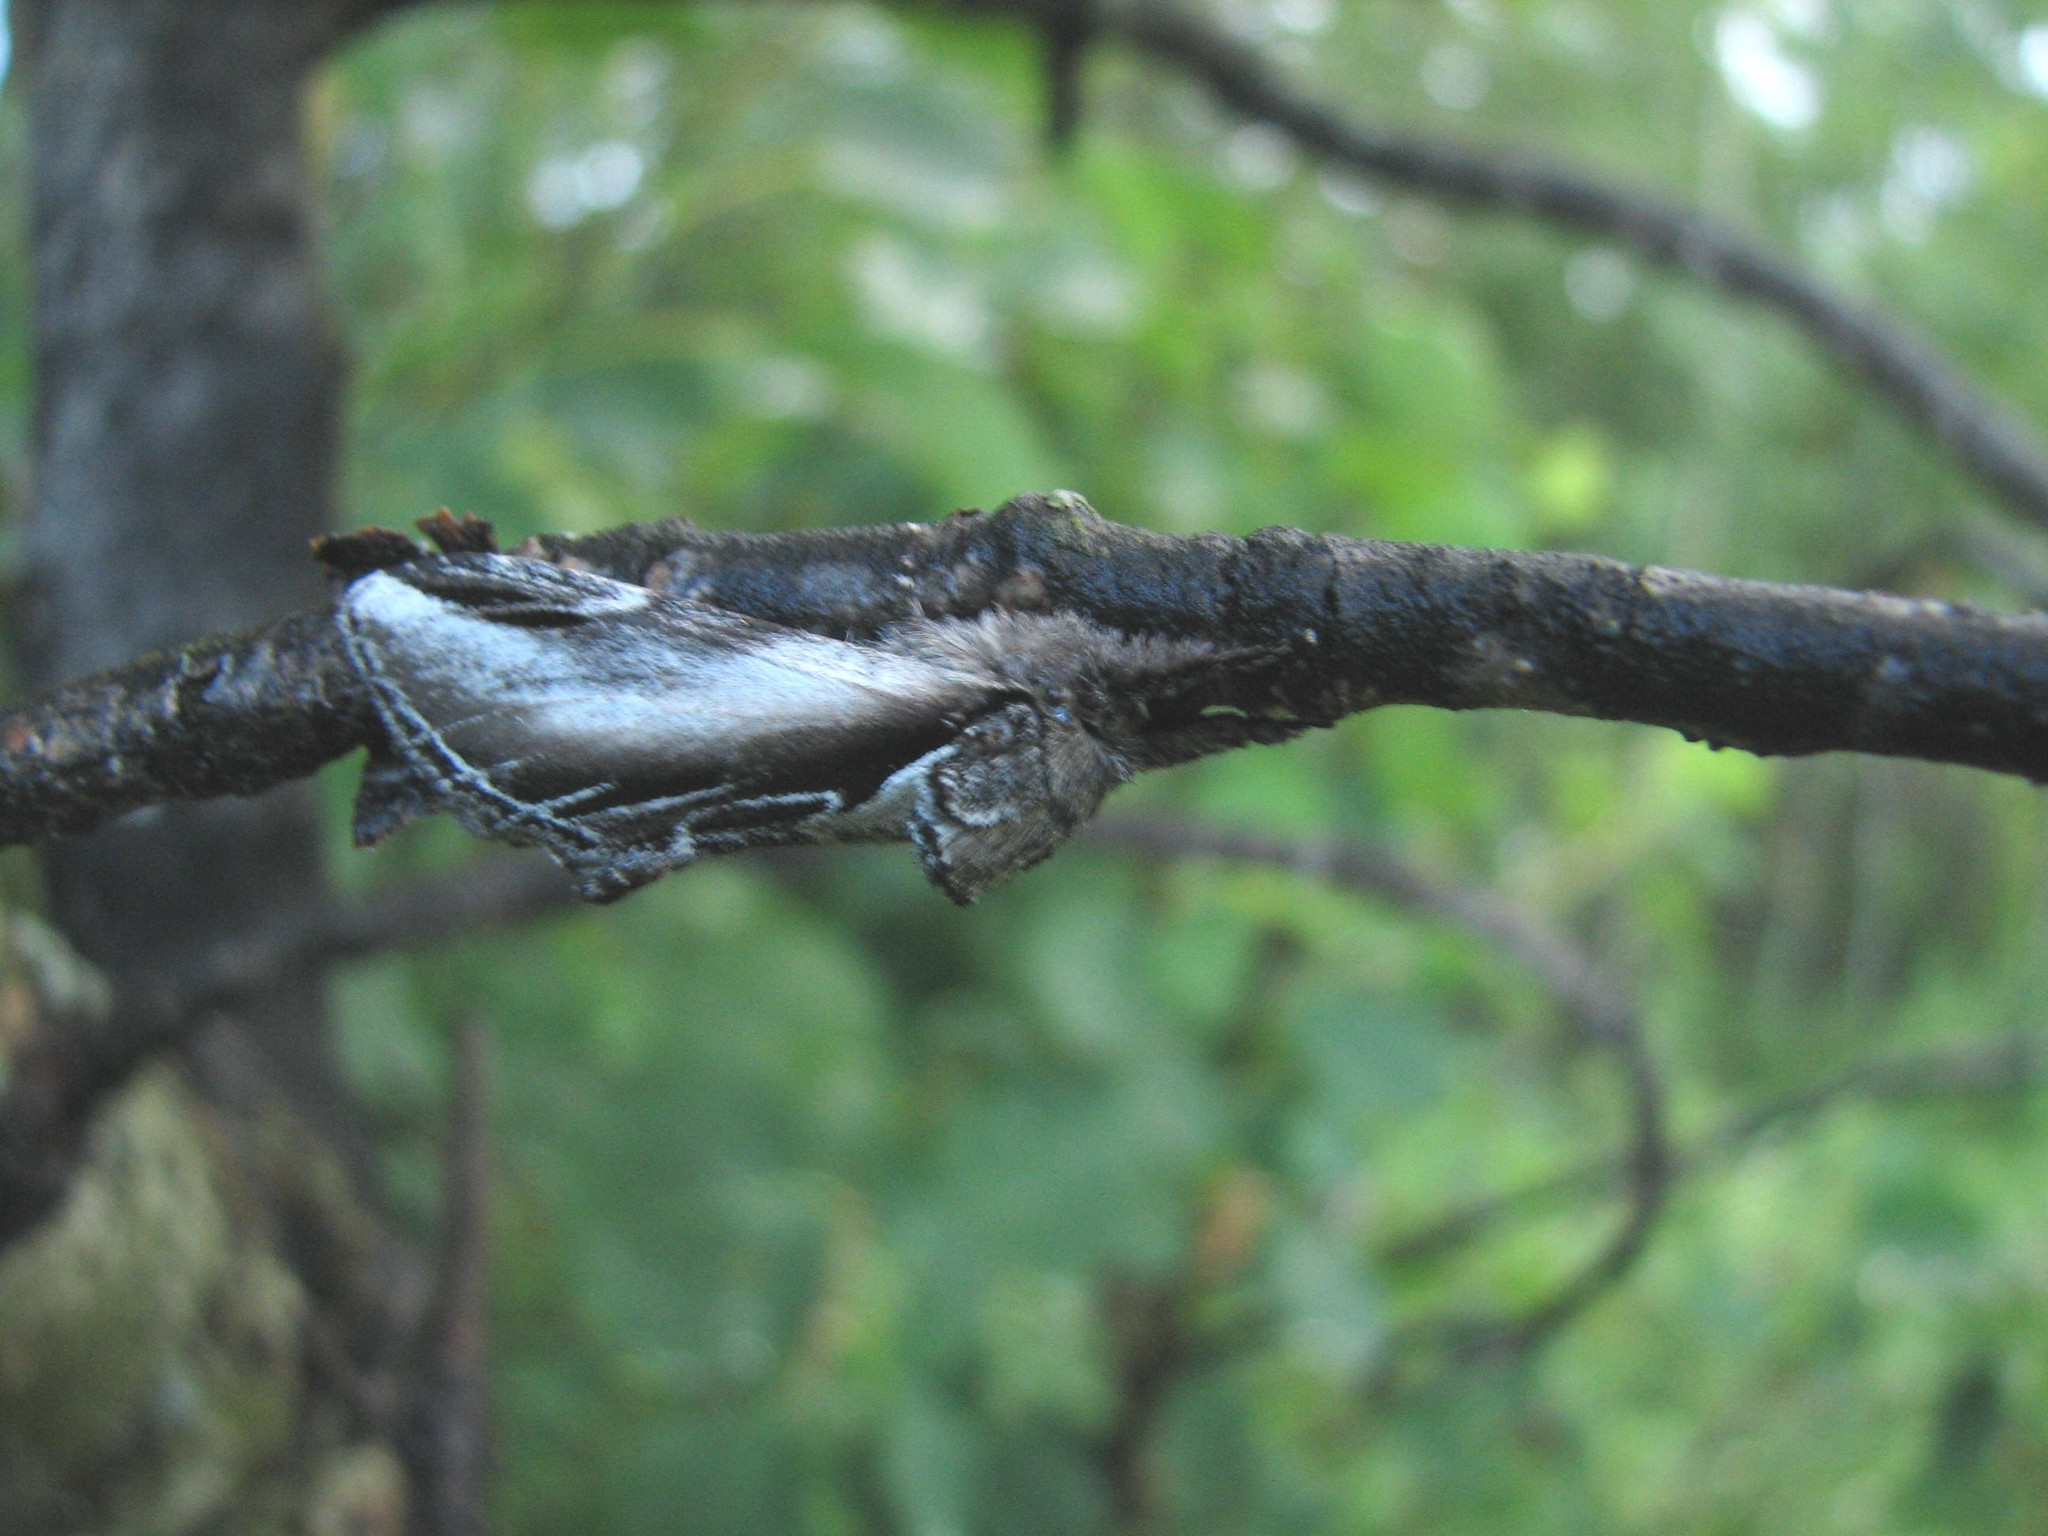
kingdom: Animalia
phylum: Arthropoda
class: Insecta
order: Lepidoptera
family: Notodontidae
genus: Pheosia
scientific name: Pheosia rimosa
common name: Black-rimmed prominent
